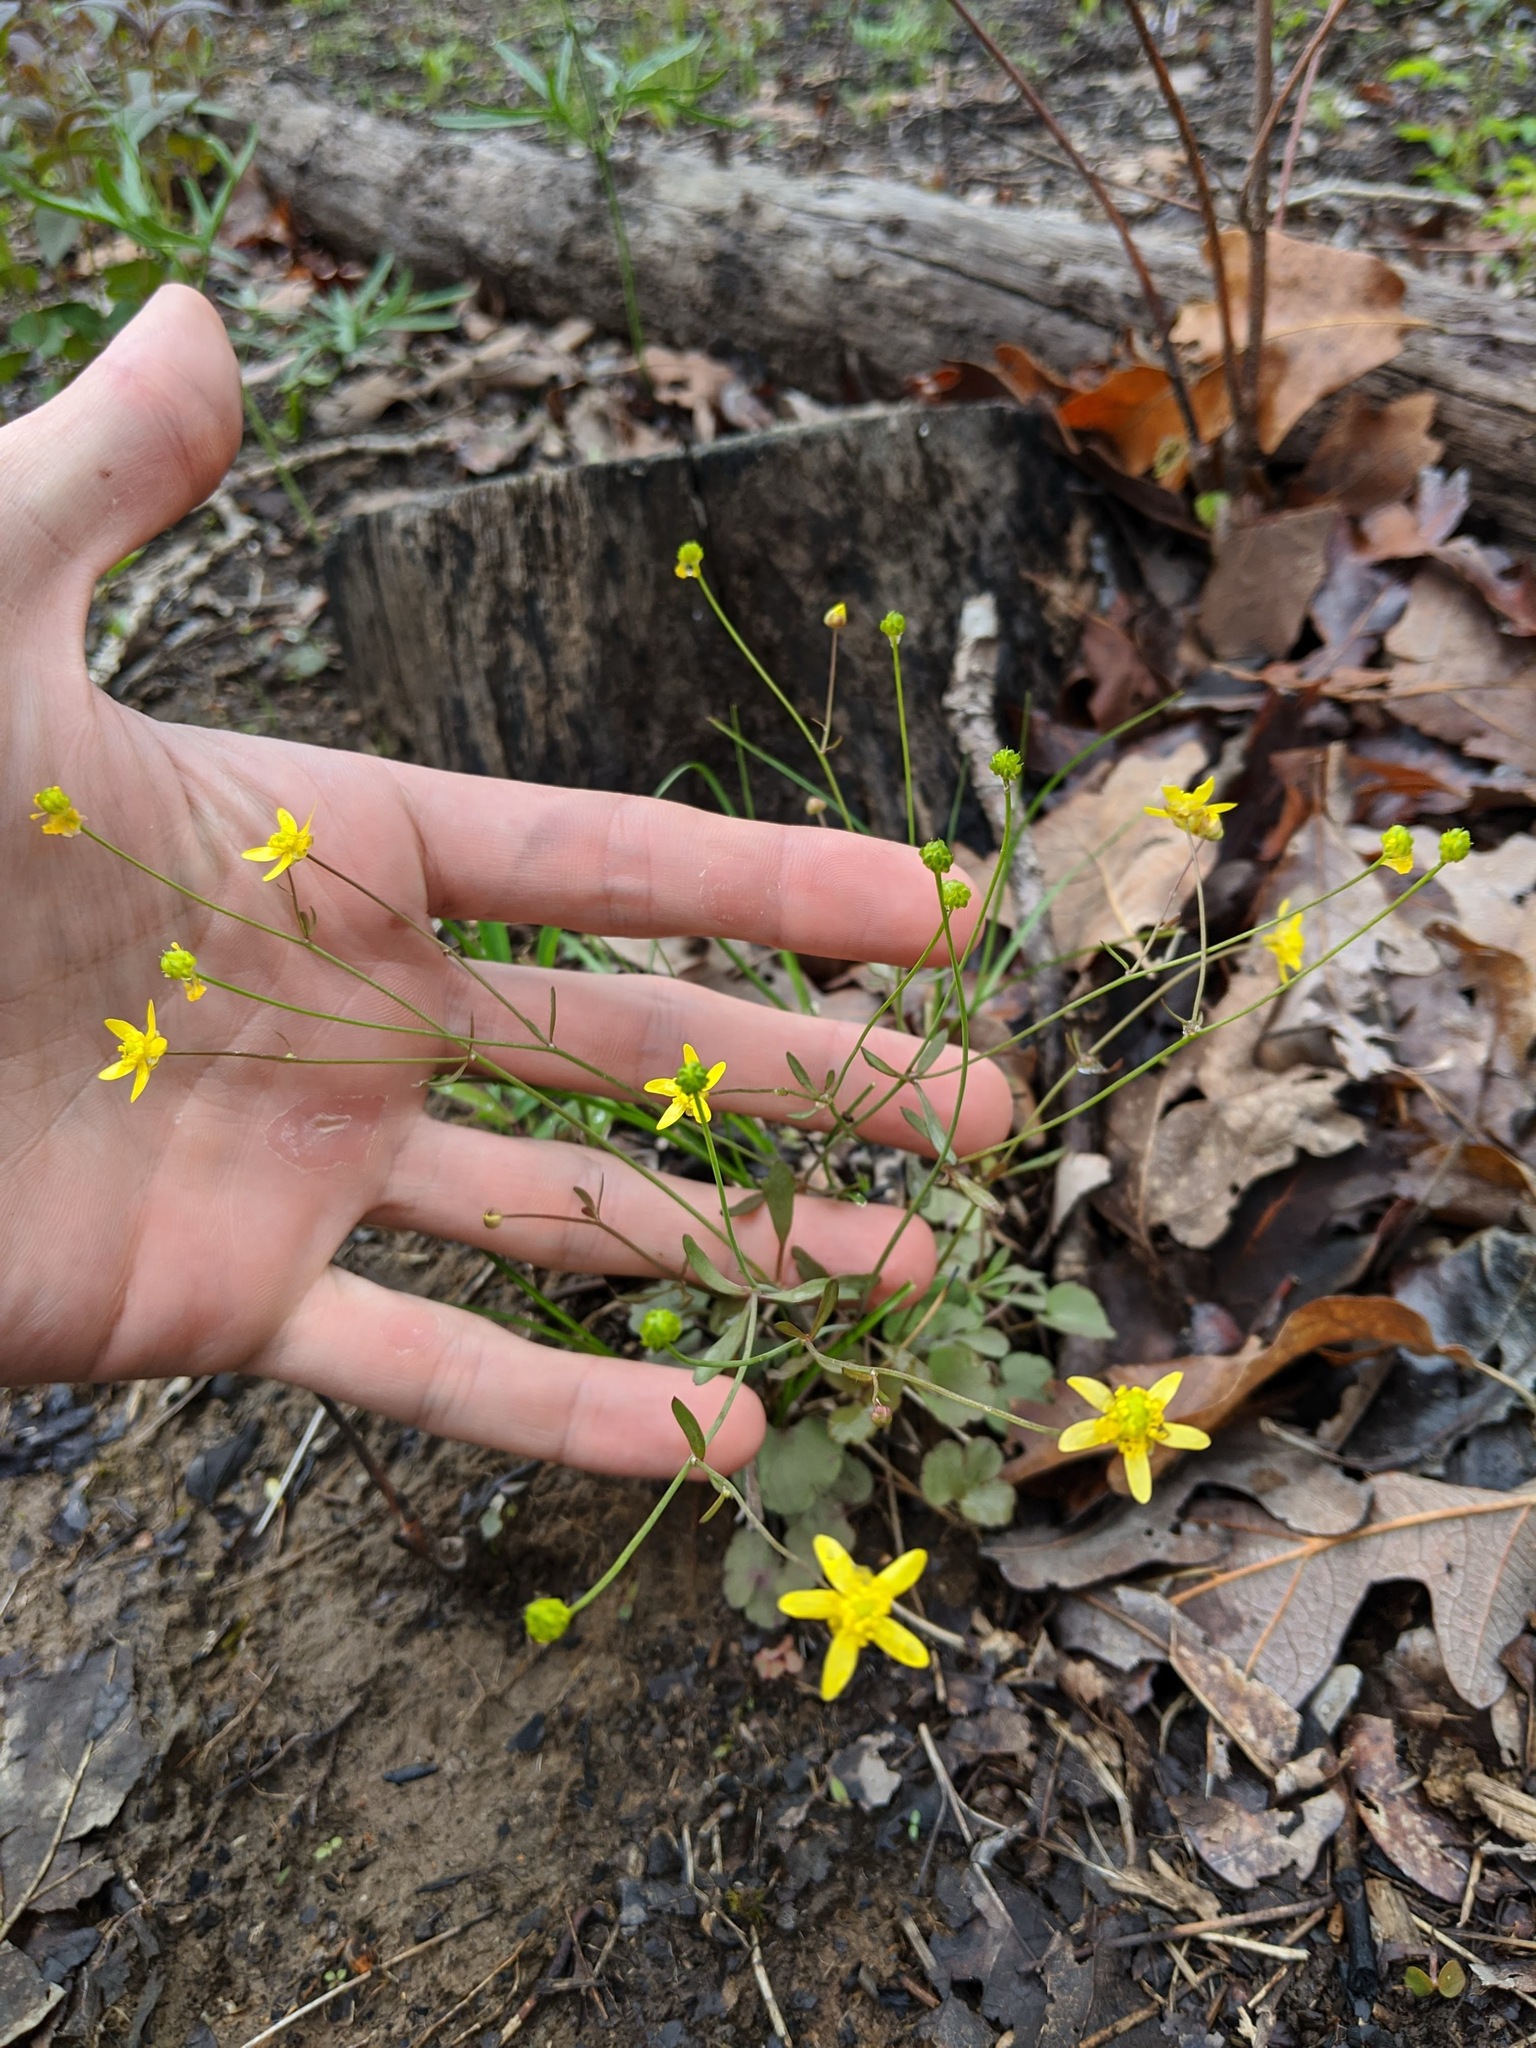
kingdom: Plantae
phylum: Tracheophyta
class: Magnoliopsida
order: Ranunculales
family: Ranunculaceae
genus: Ranunculus
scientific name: Ranunculus harveyi
